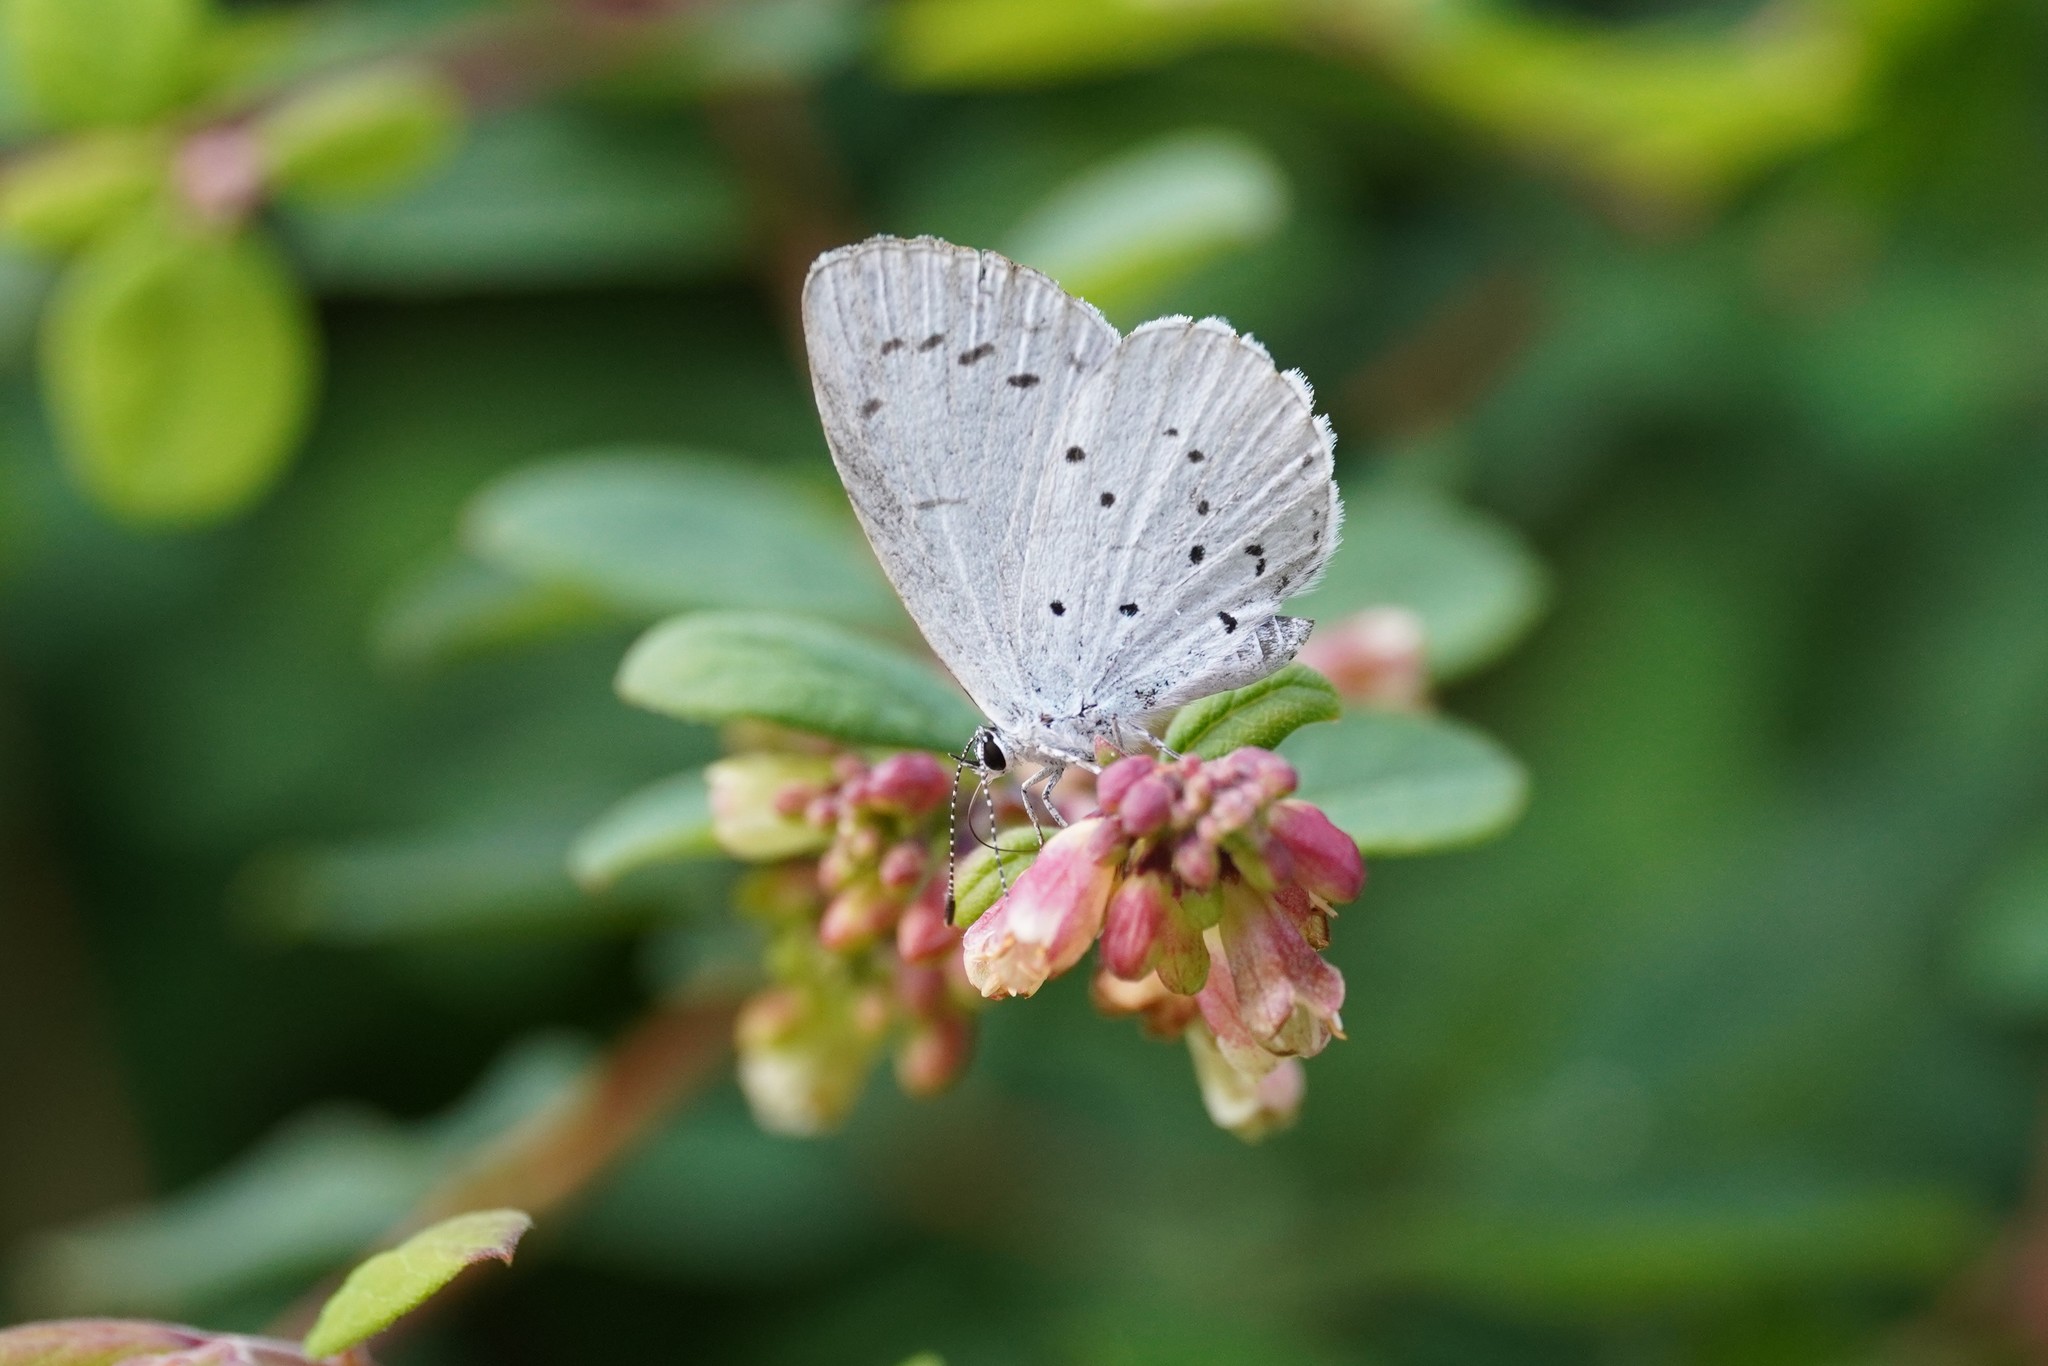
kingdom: Animalia
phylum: Arthropoda
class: Insecta
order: Lepidoptera
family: Lycaenidae
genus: Celastrina
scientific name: Celastrina argiolus
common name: Holly blue
